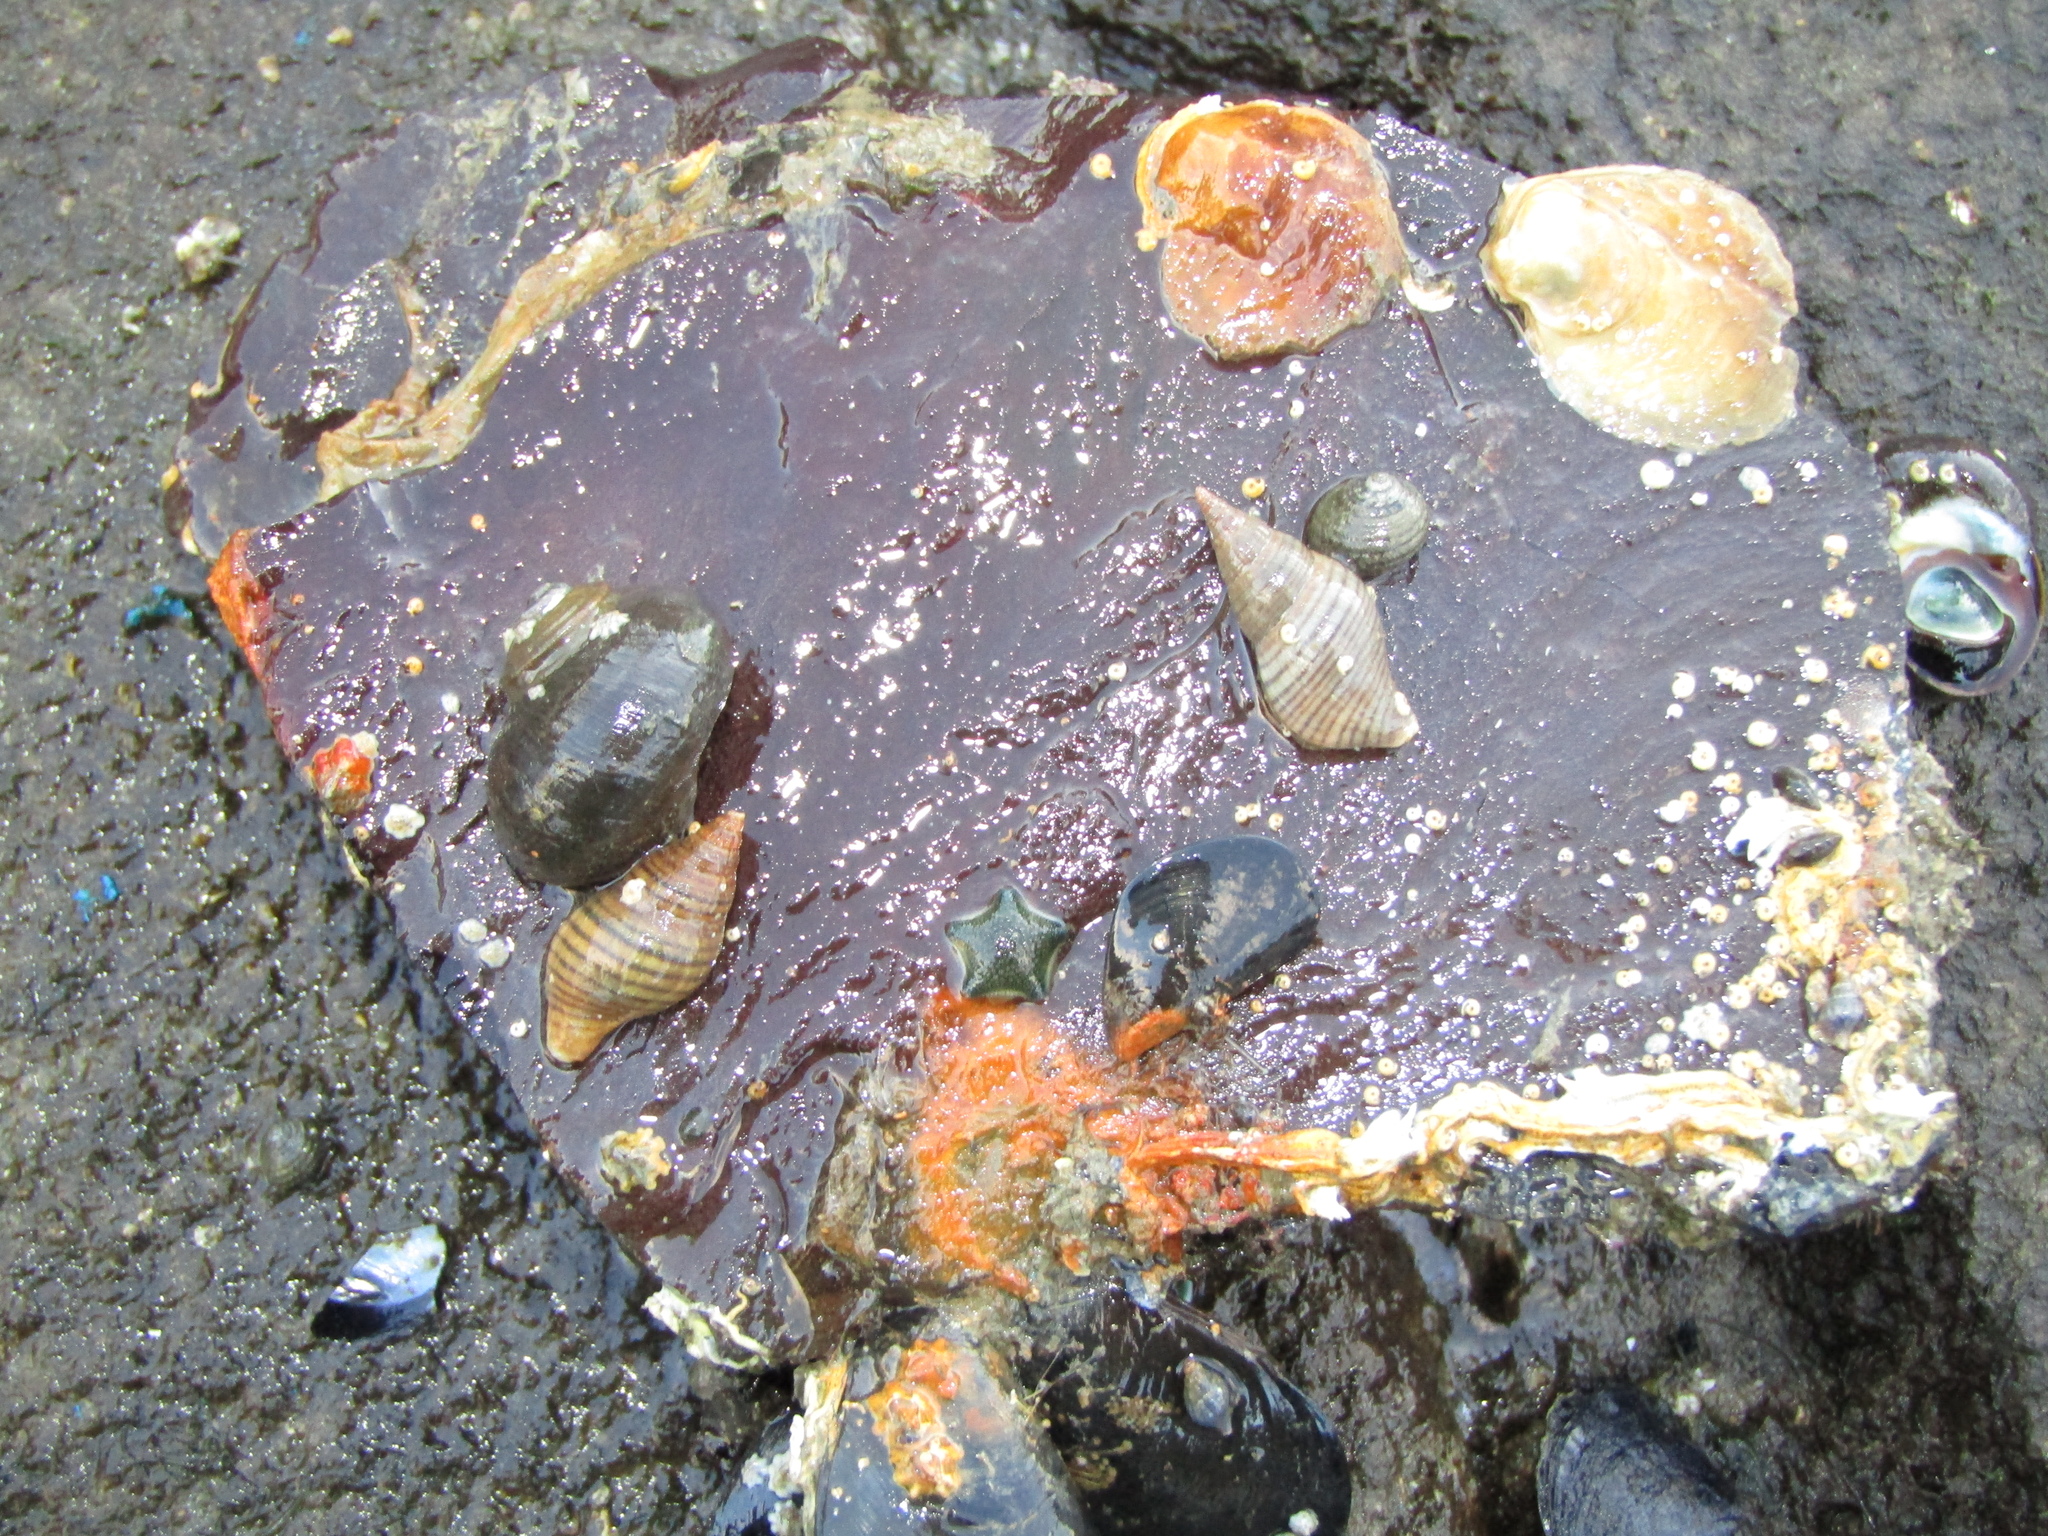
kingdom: Animalia
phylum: Mollusca
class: Gastropoda
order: Neogastropoda
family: Tudiclidae
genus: Buccinulum
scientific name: Buccinulum littorinoides
